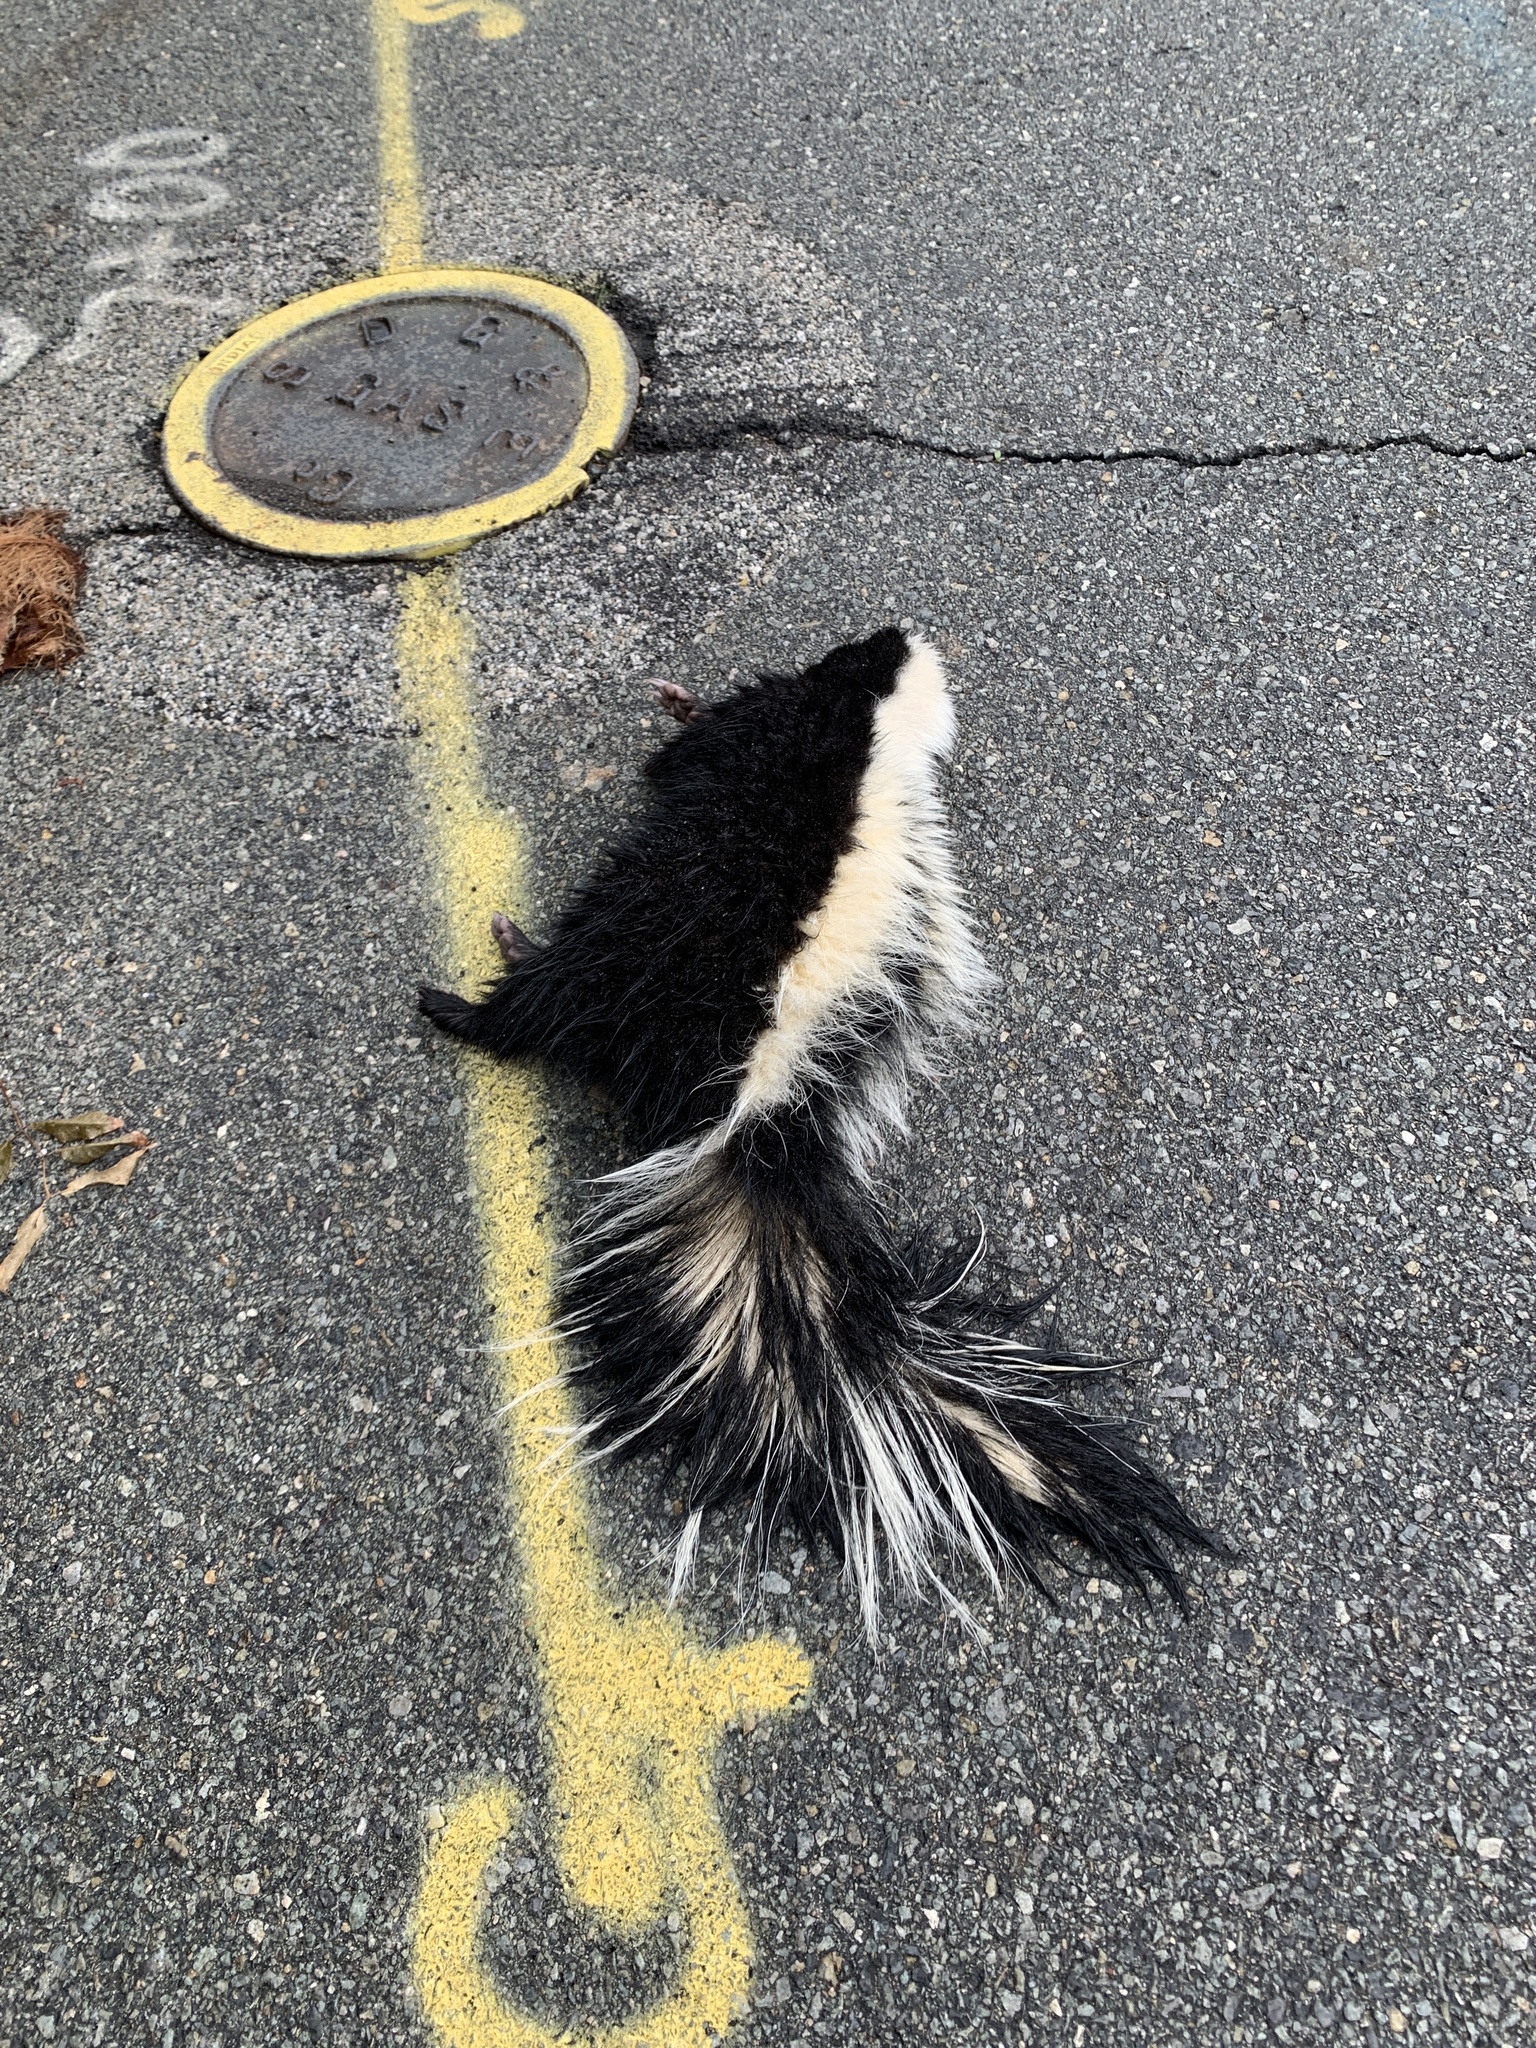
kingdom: Animalia
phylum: Chordata
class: Mammalia
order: Carnivora
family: Mephitidae
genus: Mephitis
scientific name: Mephitis mephitis
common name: Striped skunk
